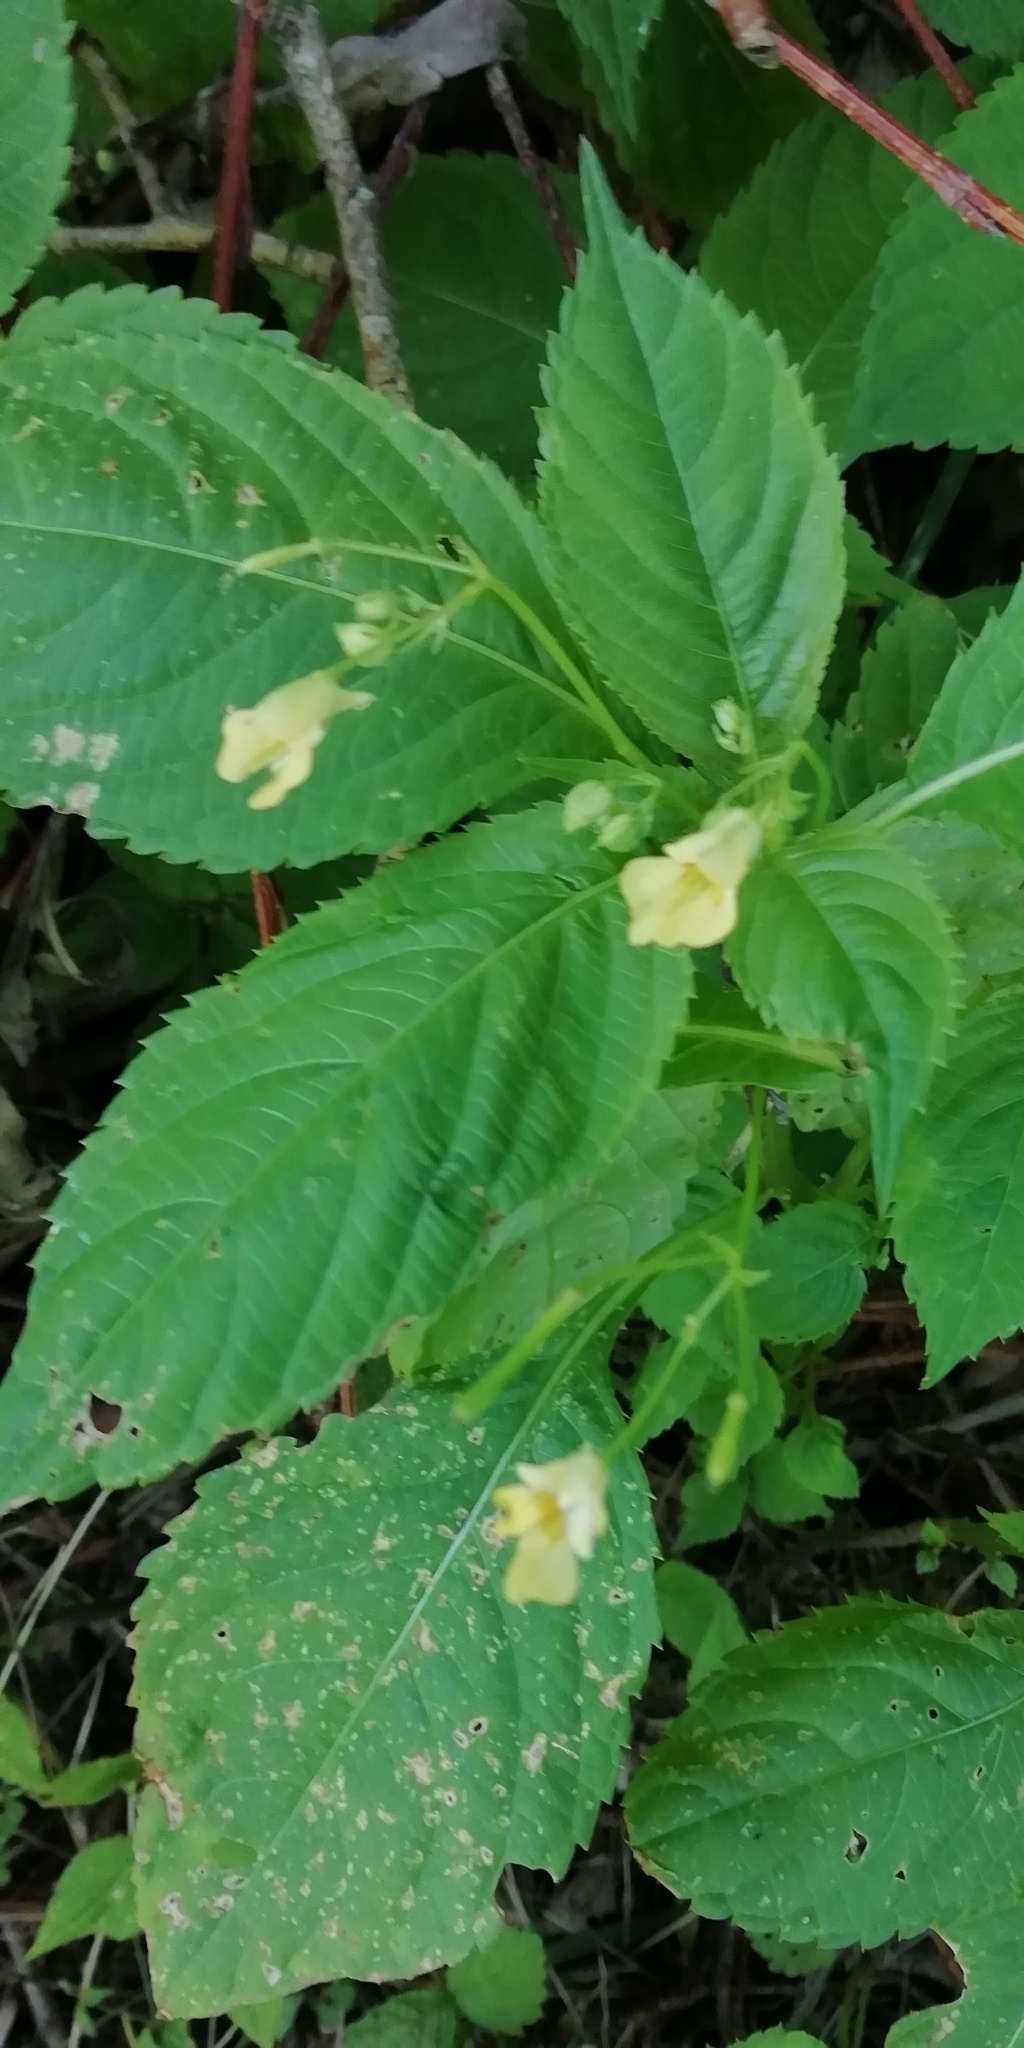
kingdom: Plantae
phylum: Tracheophyta
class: Magnoliopsida
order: Ericales
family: Balsaminaceae
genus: Impatiens
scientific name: Impatiens parviflora
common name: Small balsam
